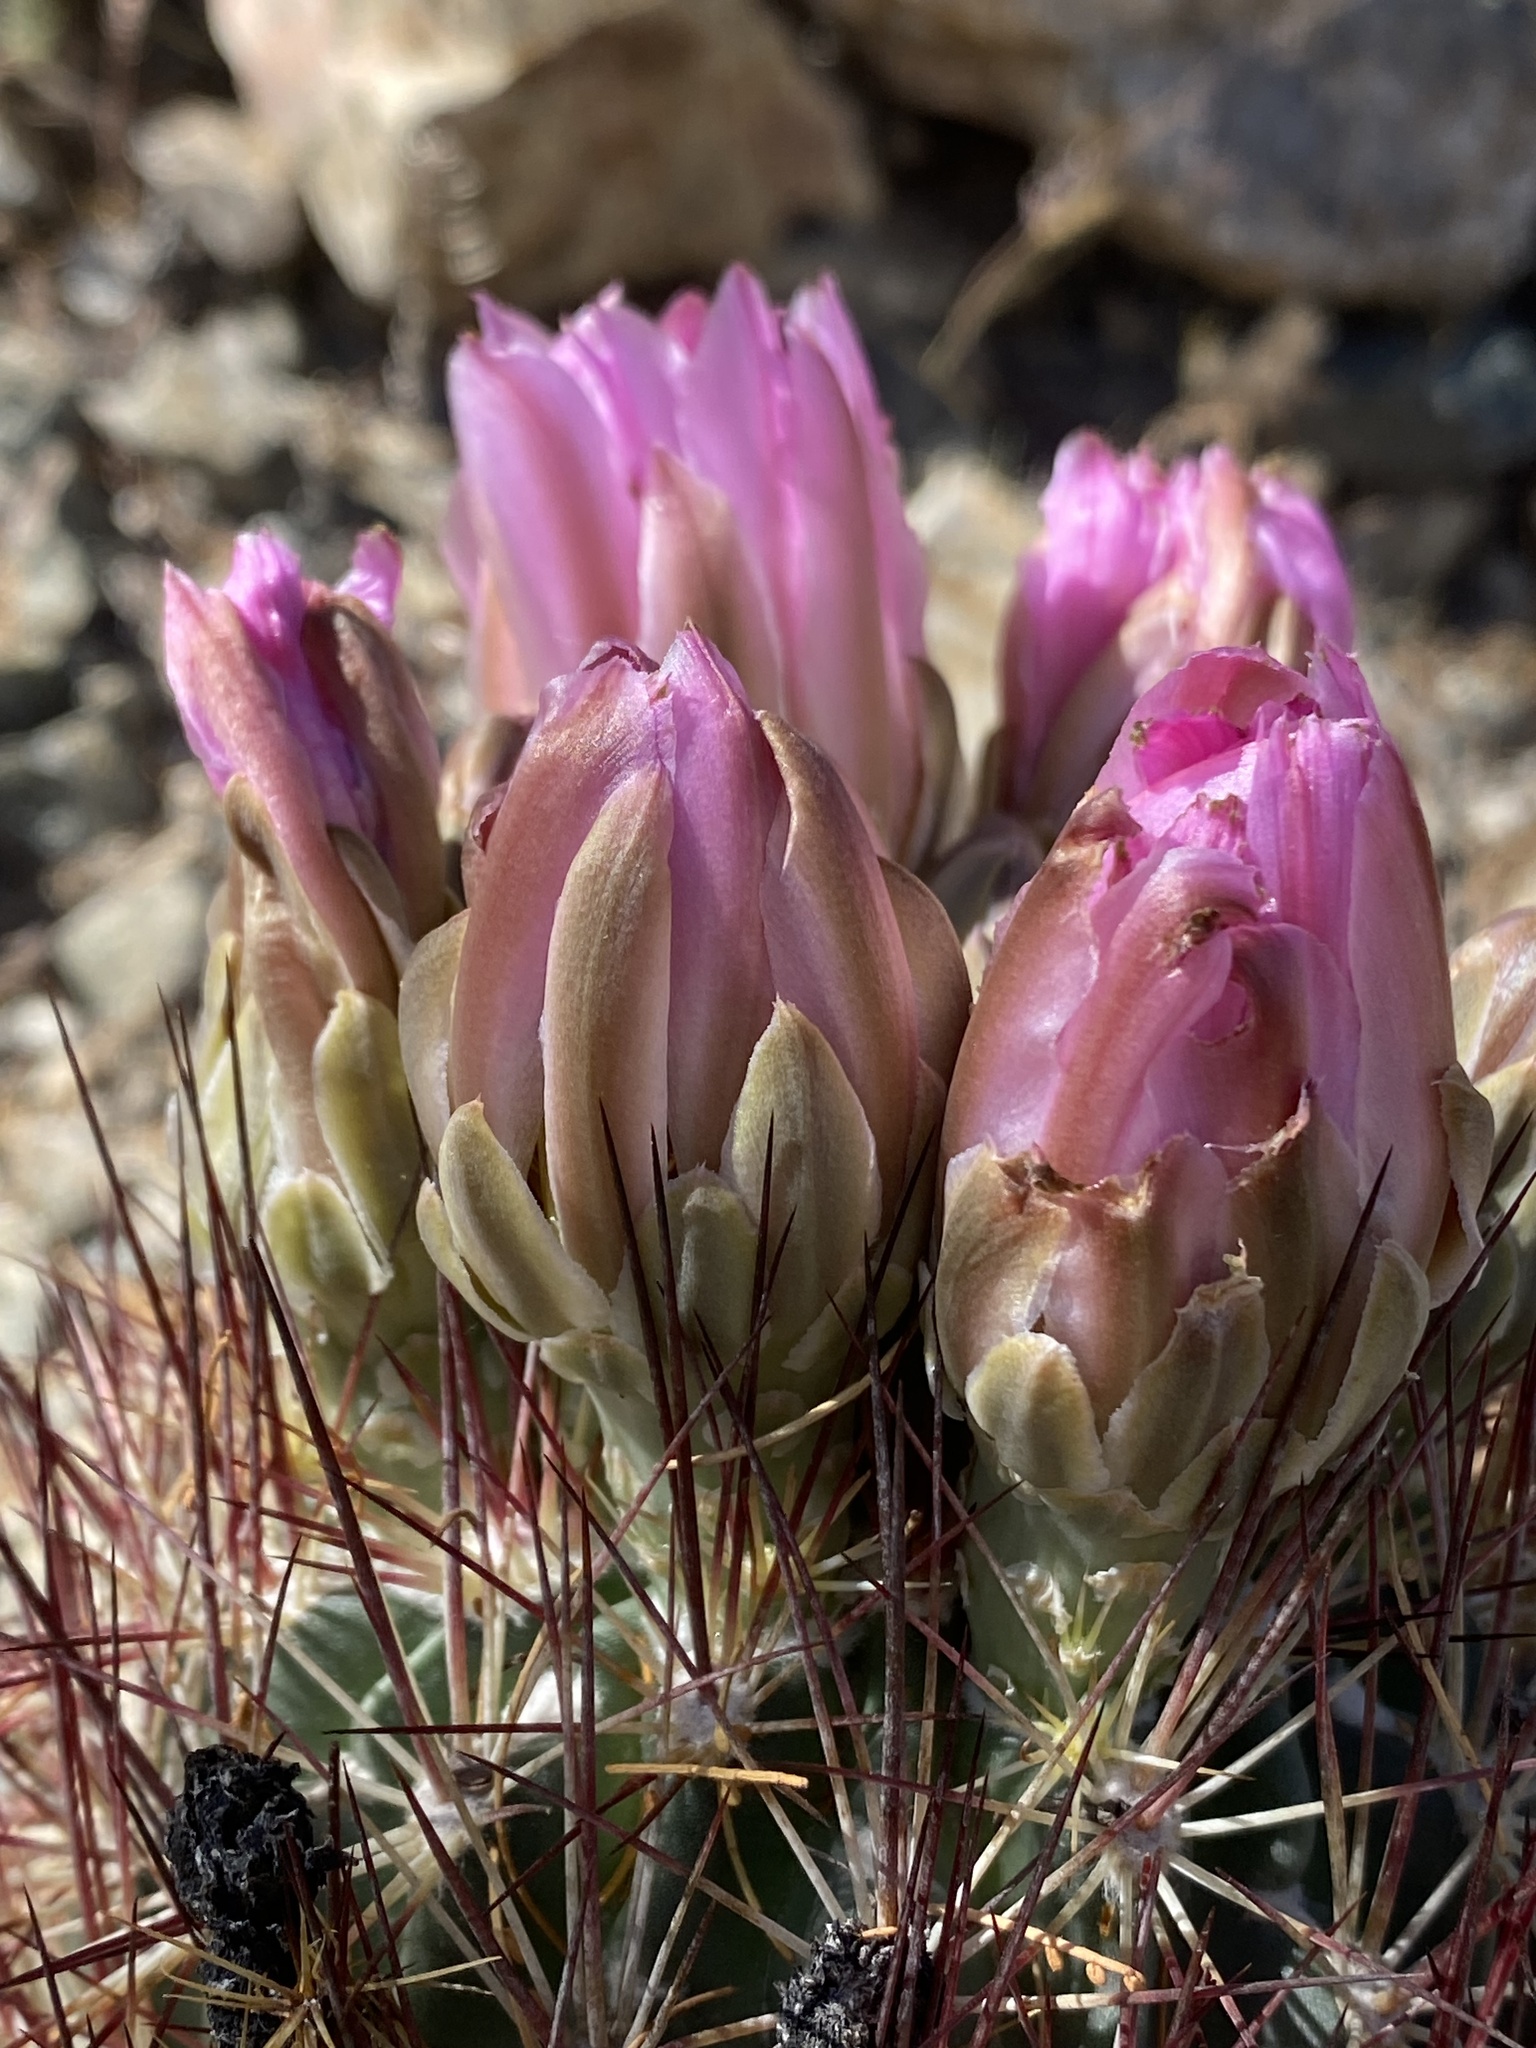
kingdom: Plantae
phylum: Tracheophyta
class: Magnoliopsida
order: Caryophyllales
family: Cactaceae
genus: Sclerocactus
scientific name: Sclerocactus johnsonii
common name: Eight-spine fishhook cactus
